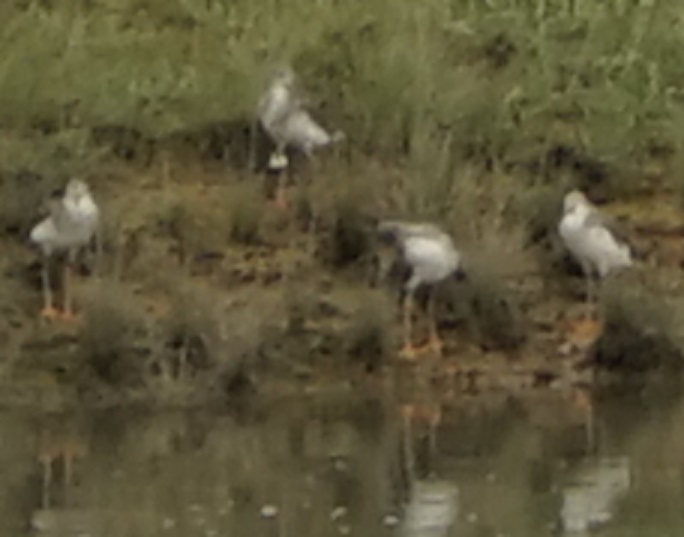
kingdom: Animalia
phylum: Chordata
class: Aves
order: Charadriiformes
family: Scolopacidae
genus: Tringa
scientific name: Tringa totanus
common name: Common redshank
